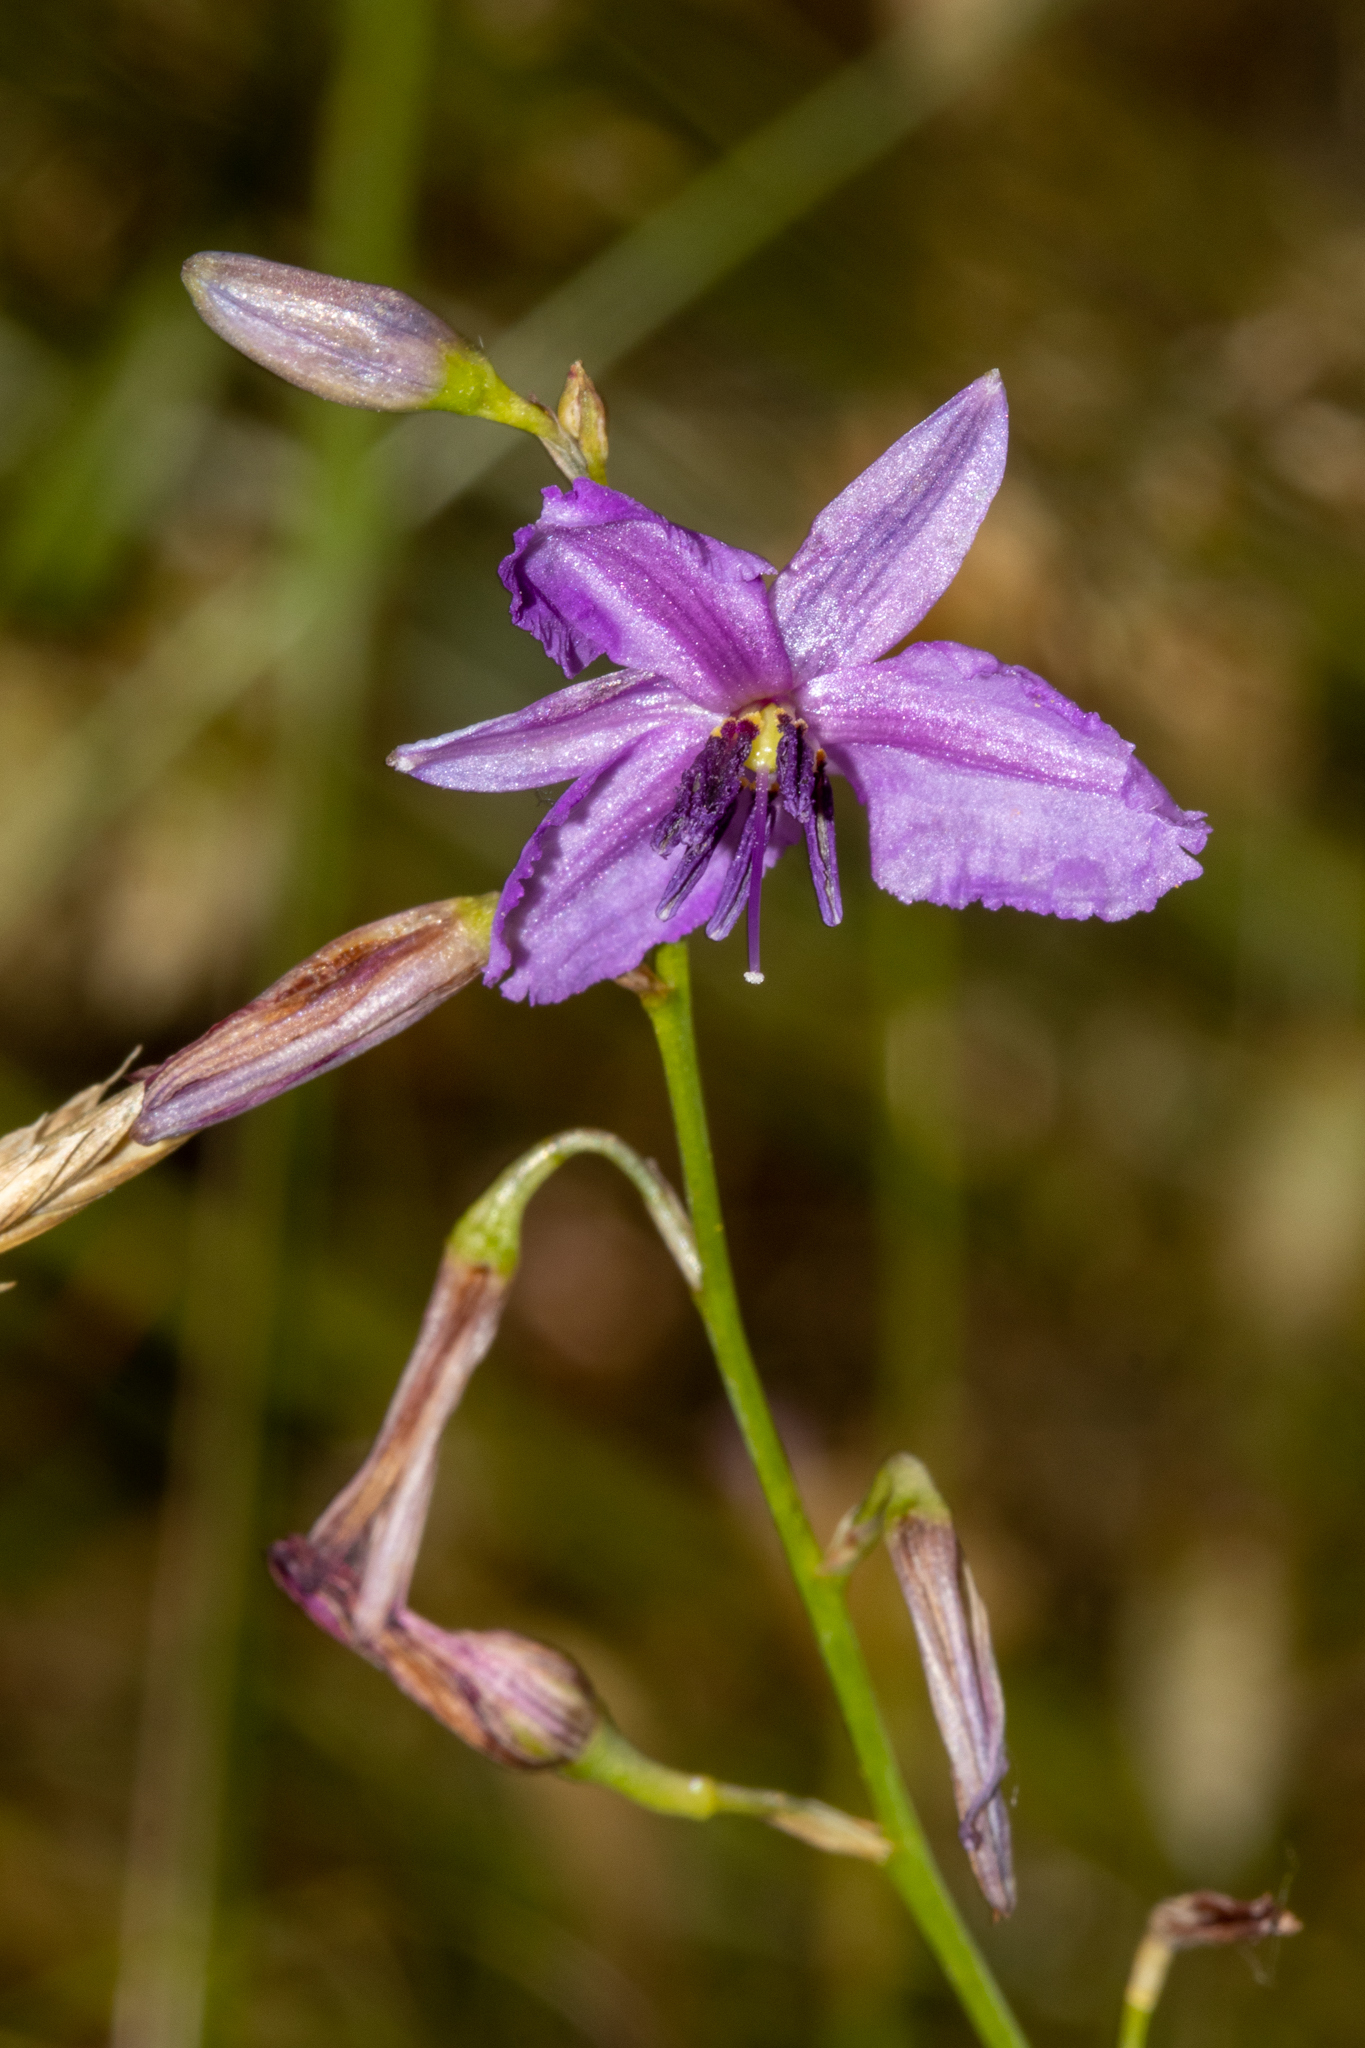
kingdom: Plantae
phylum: Tracheophyta
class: Liliopsida
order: Asparagales
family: Asparagaceae
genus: Arthropodium
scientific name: Arthropodium strictum
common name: Chocolate-lily
